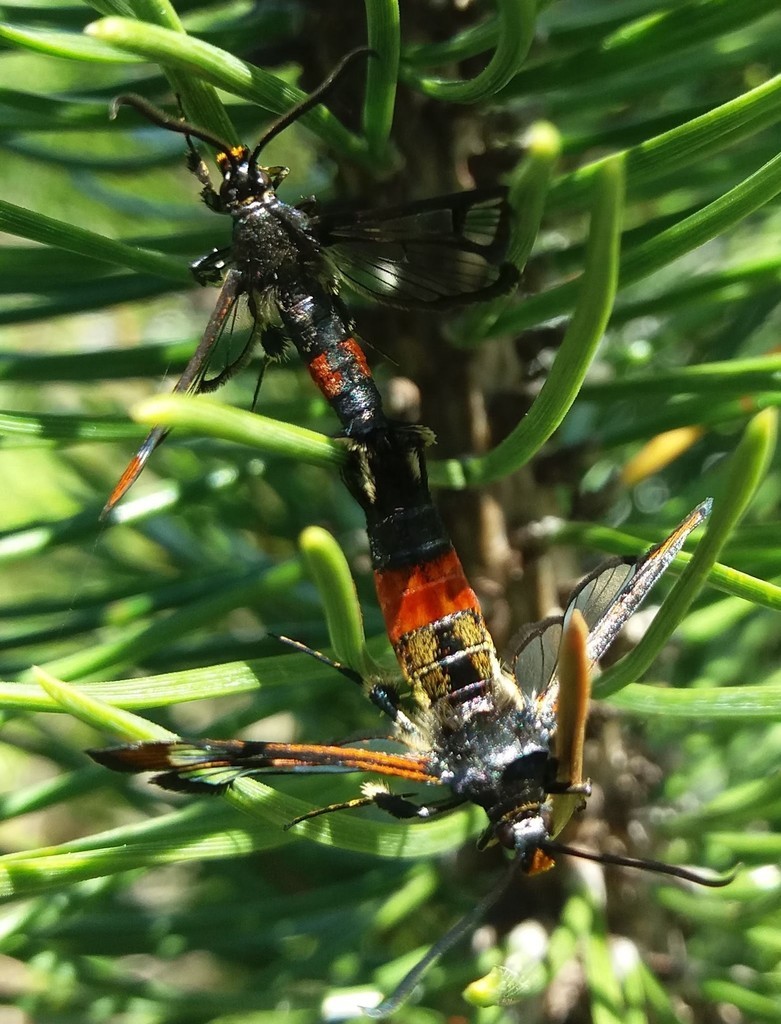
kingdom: Animalia
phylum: Arthropoda
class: Insecta
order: Lepidoptera
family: Sesiidae
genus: Synanthedon
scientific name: Synanthedon formicaeformis
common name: Red-tipped clearwing
